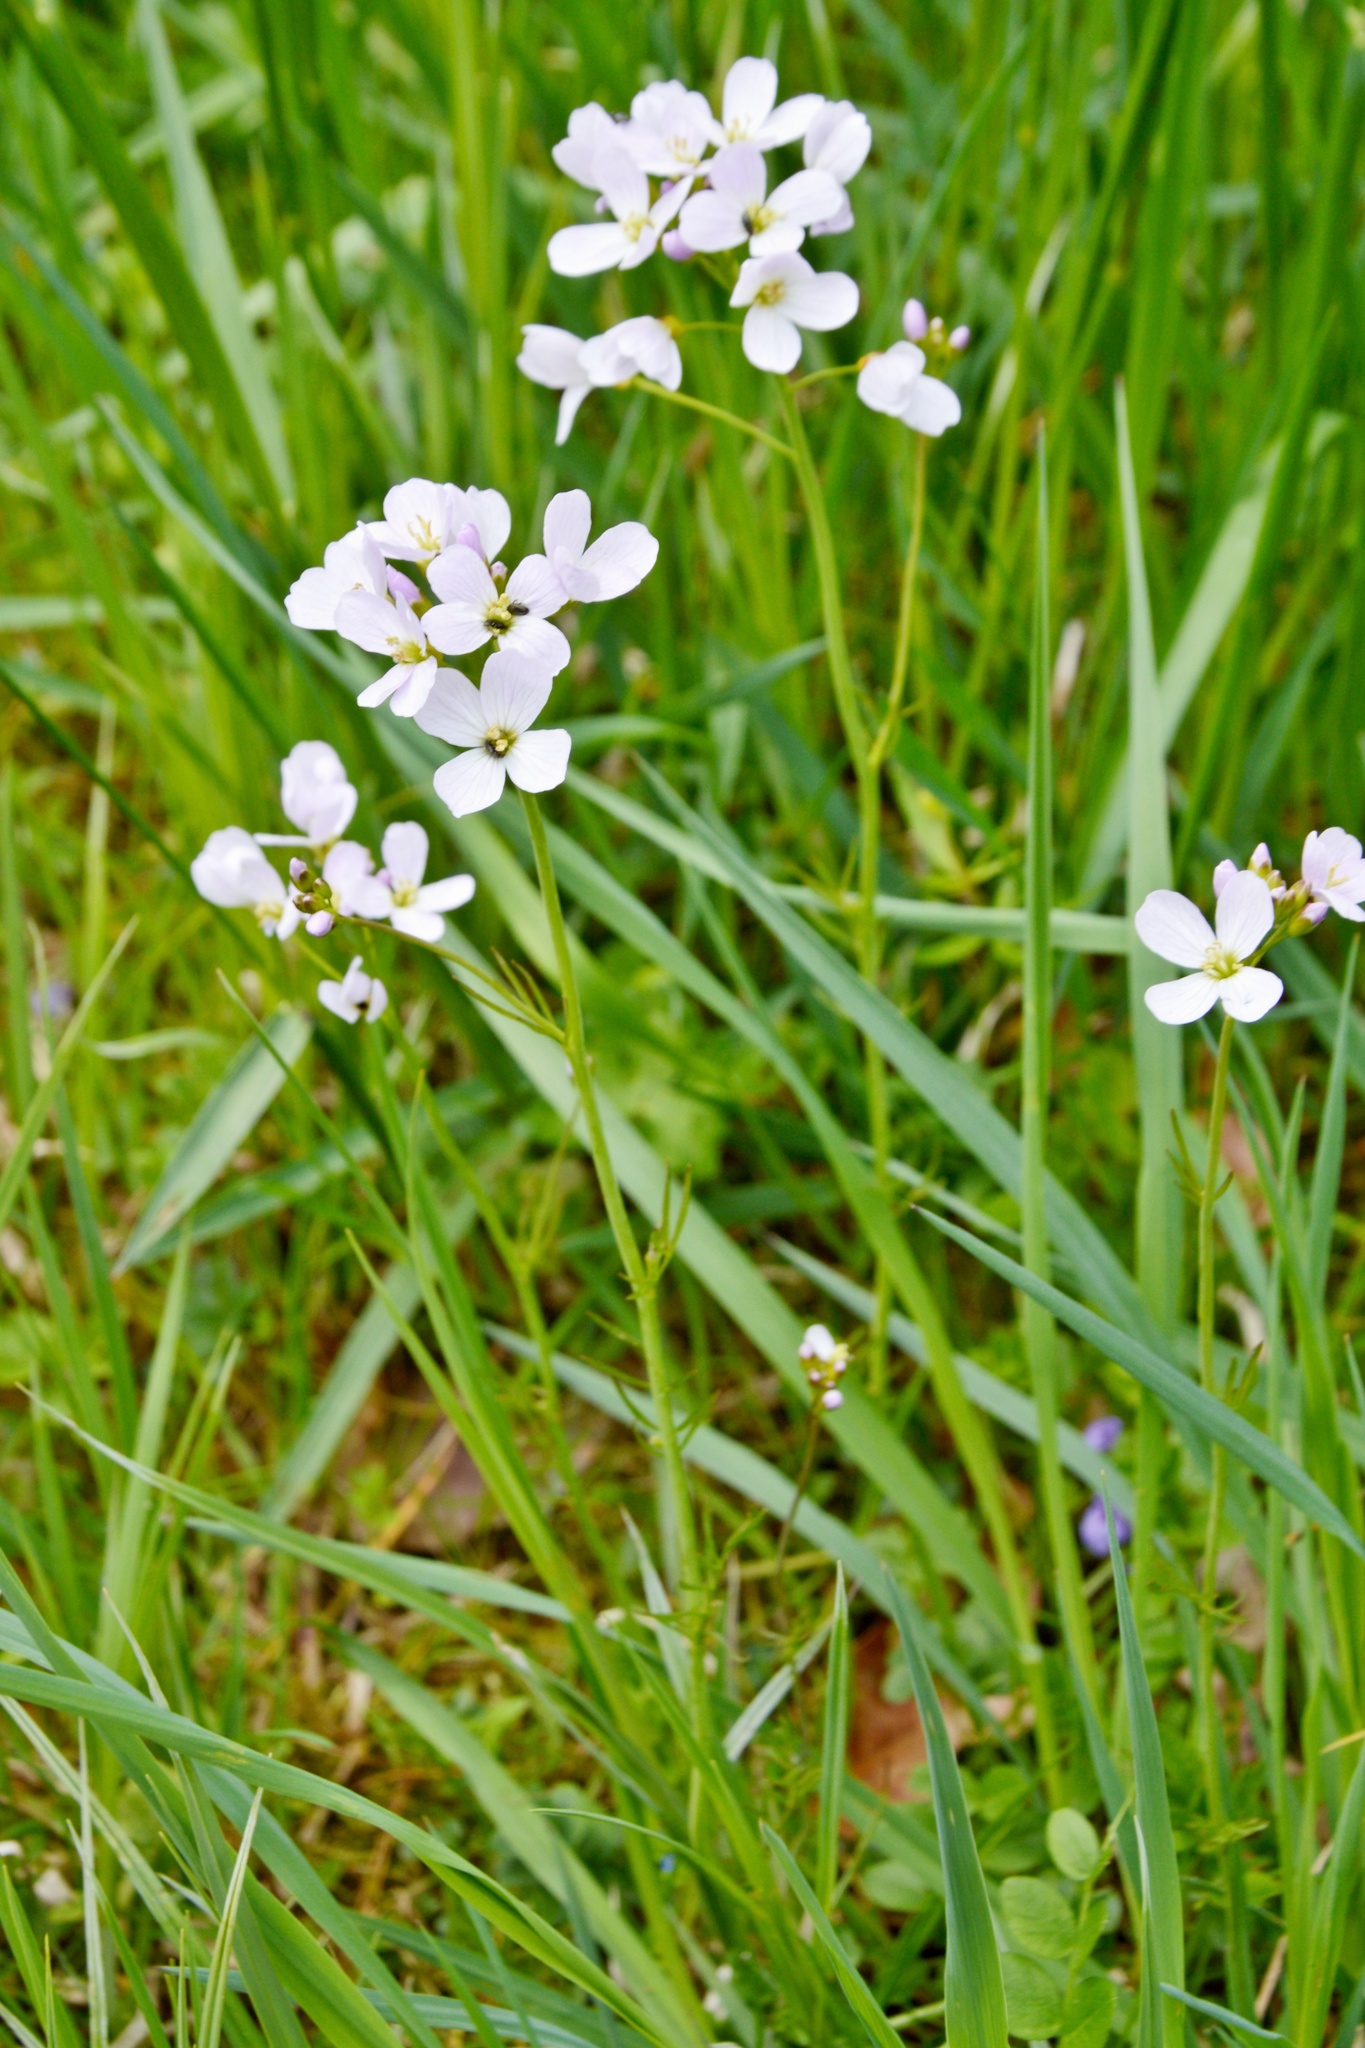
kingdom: Plantae
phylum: Tracheophyta
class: Magnoliopsida
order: Brassicales
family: Brassicaceae
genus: Cardamine
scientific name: Cardamine pratensis
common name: Cuckoo flower
